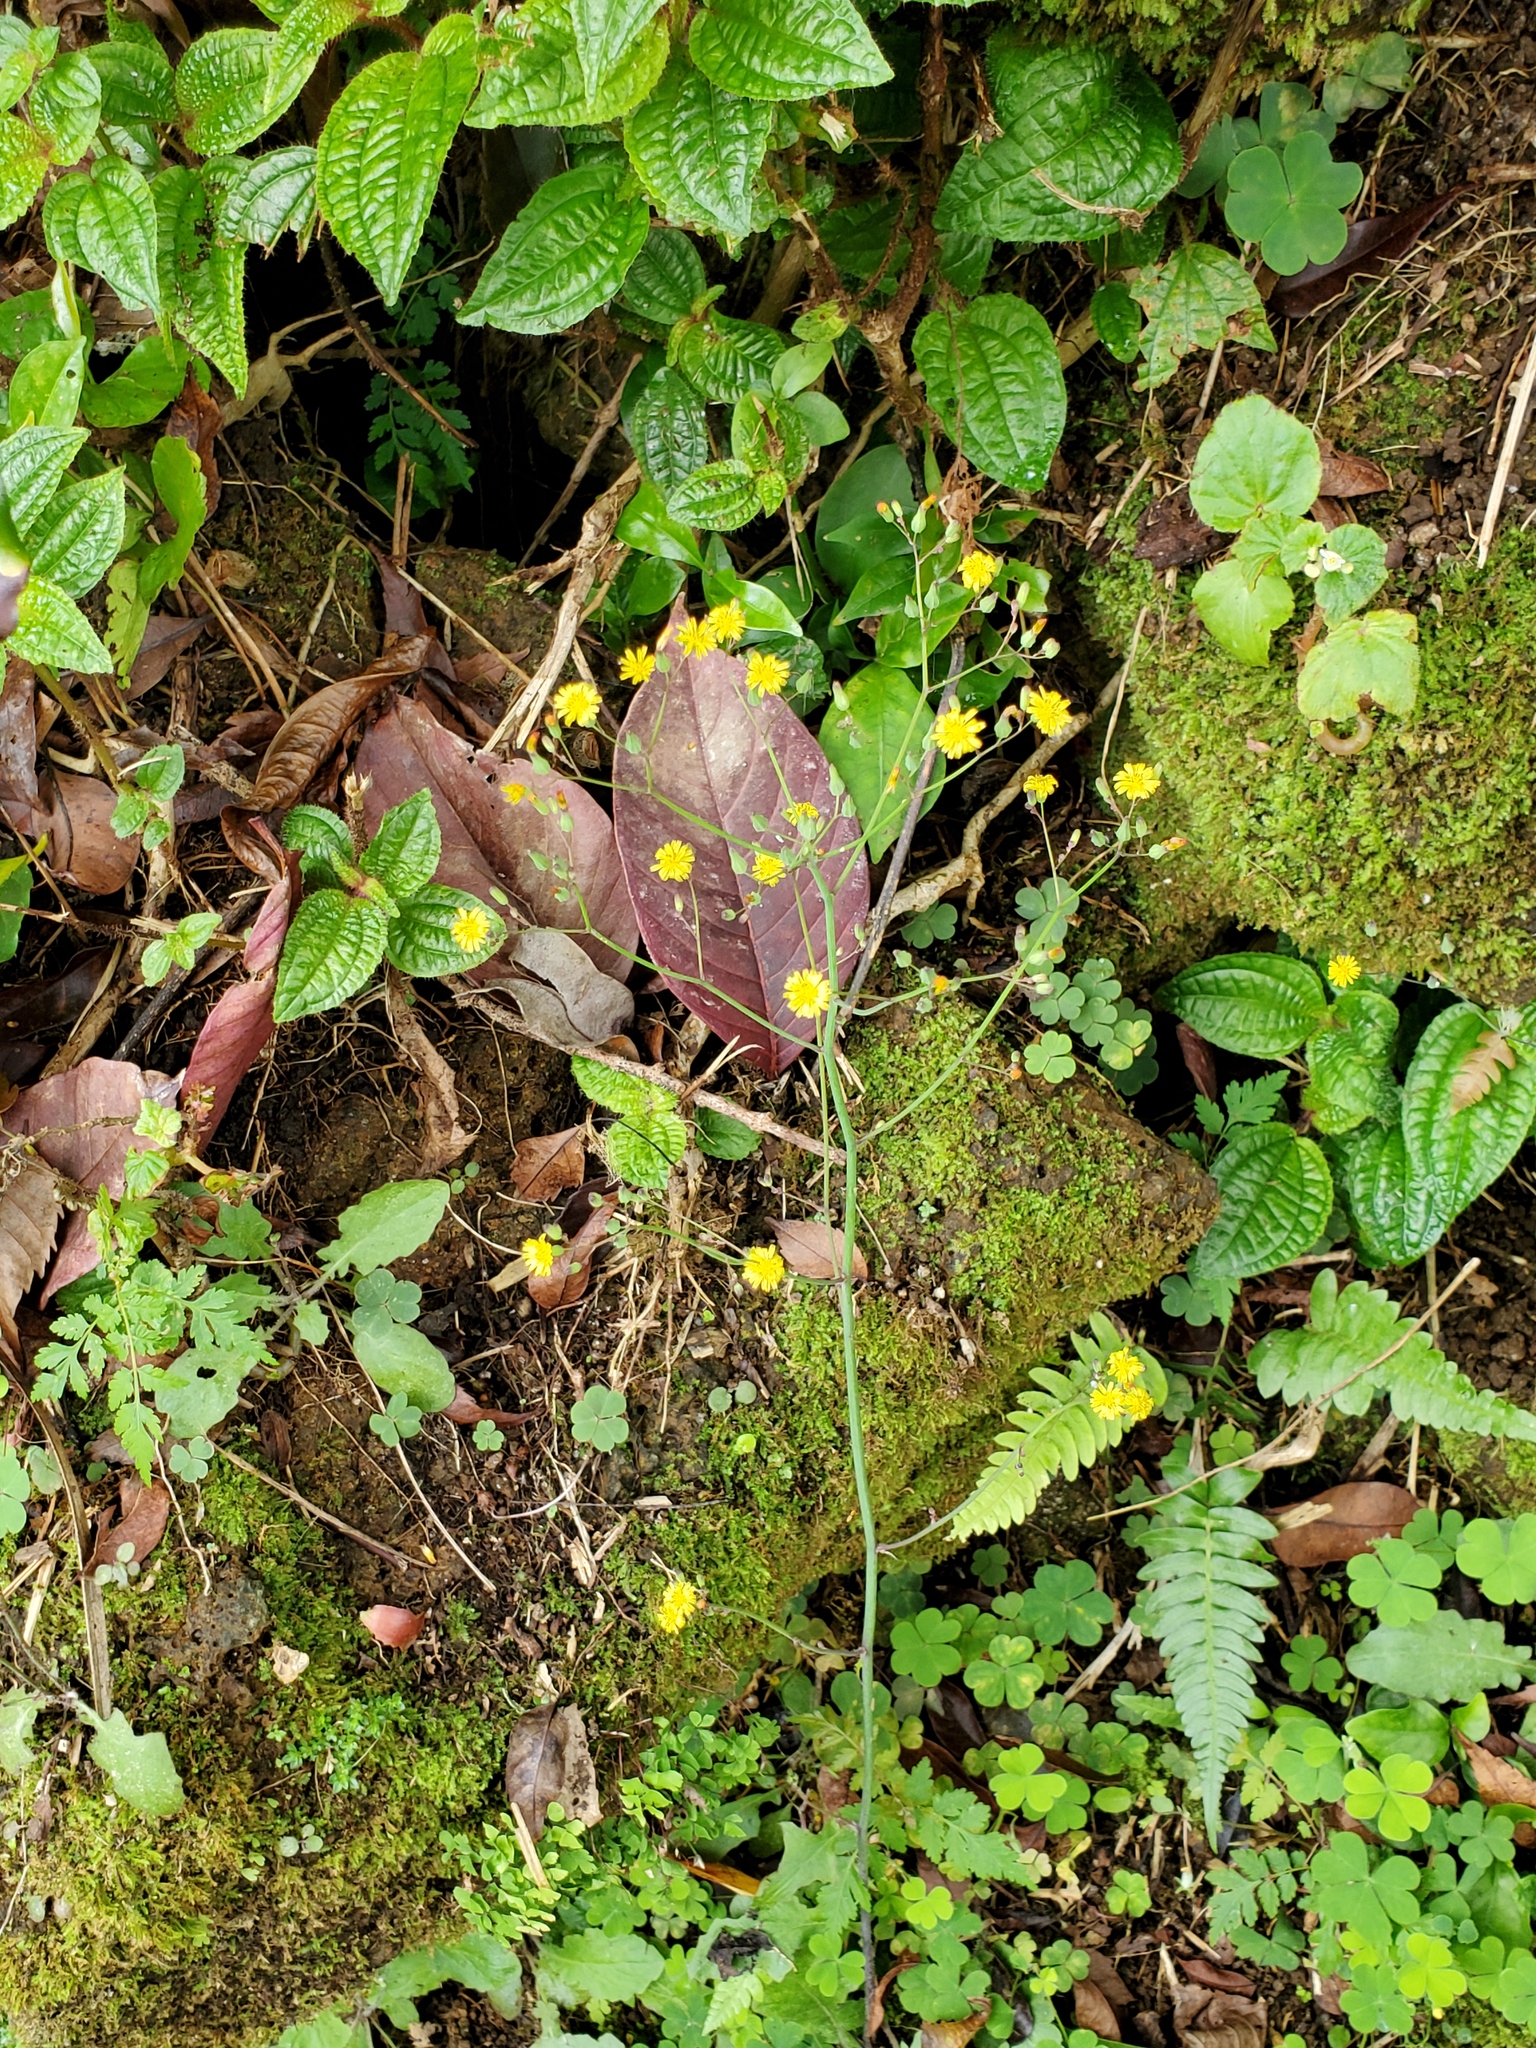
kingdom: Plantae
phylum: Tracheophyta
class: Magnoliopsida
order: Asterales
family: Asteraceae
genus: Youngia
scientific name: Youngia japonica
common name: Oriental false hawksbeard
